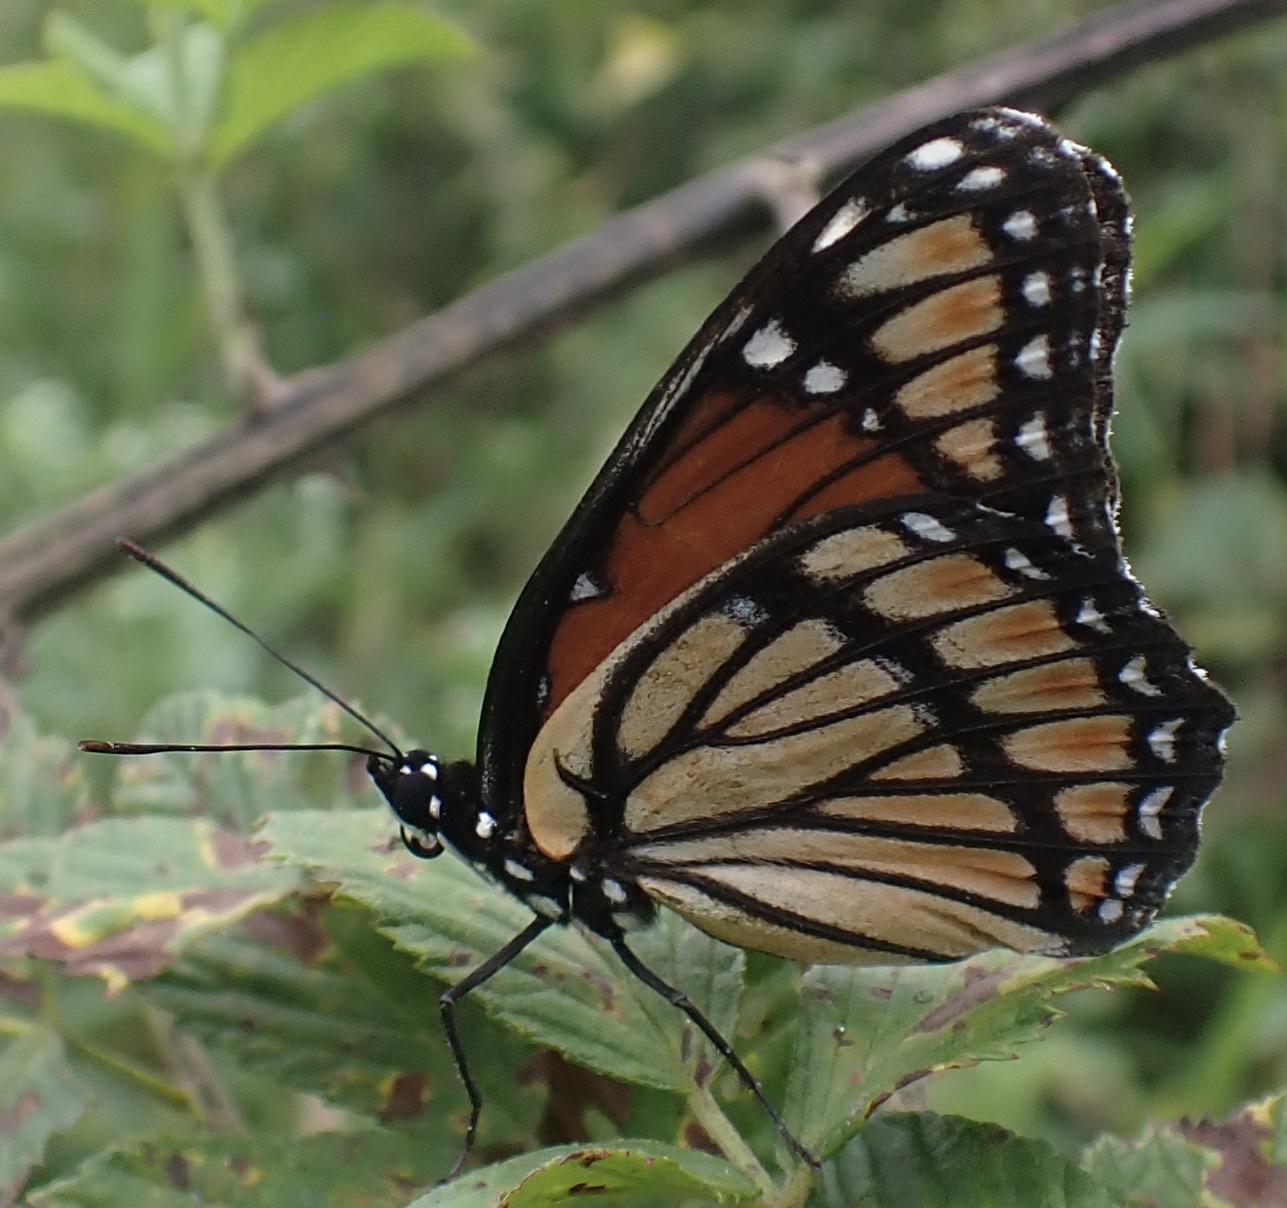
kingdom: Animalia
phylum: Arthropoda
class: Insecta
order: Lepidoptera
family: Nymphalidae
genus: Limenitis
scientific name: Limenitis archippus
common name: Viceroy
